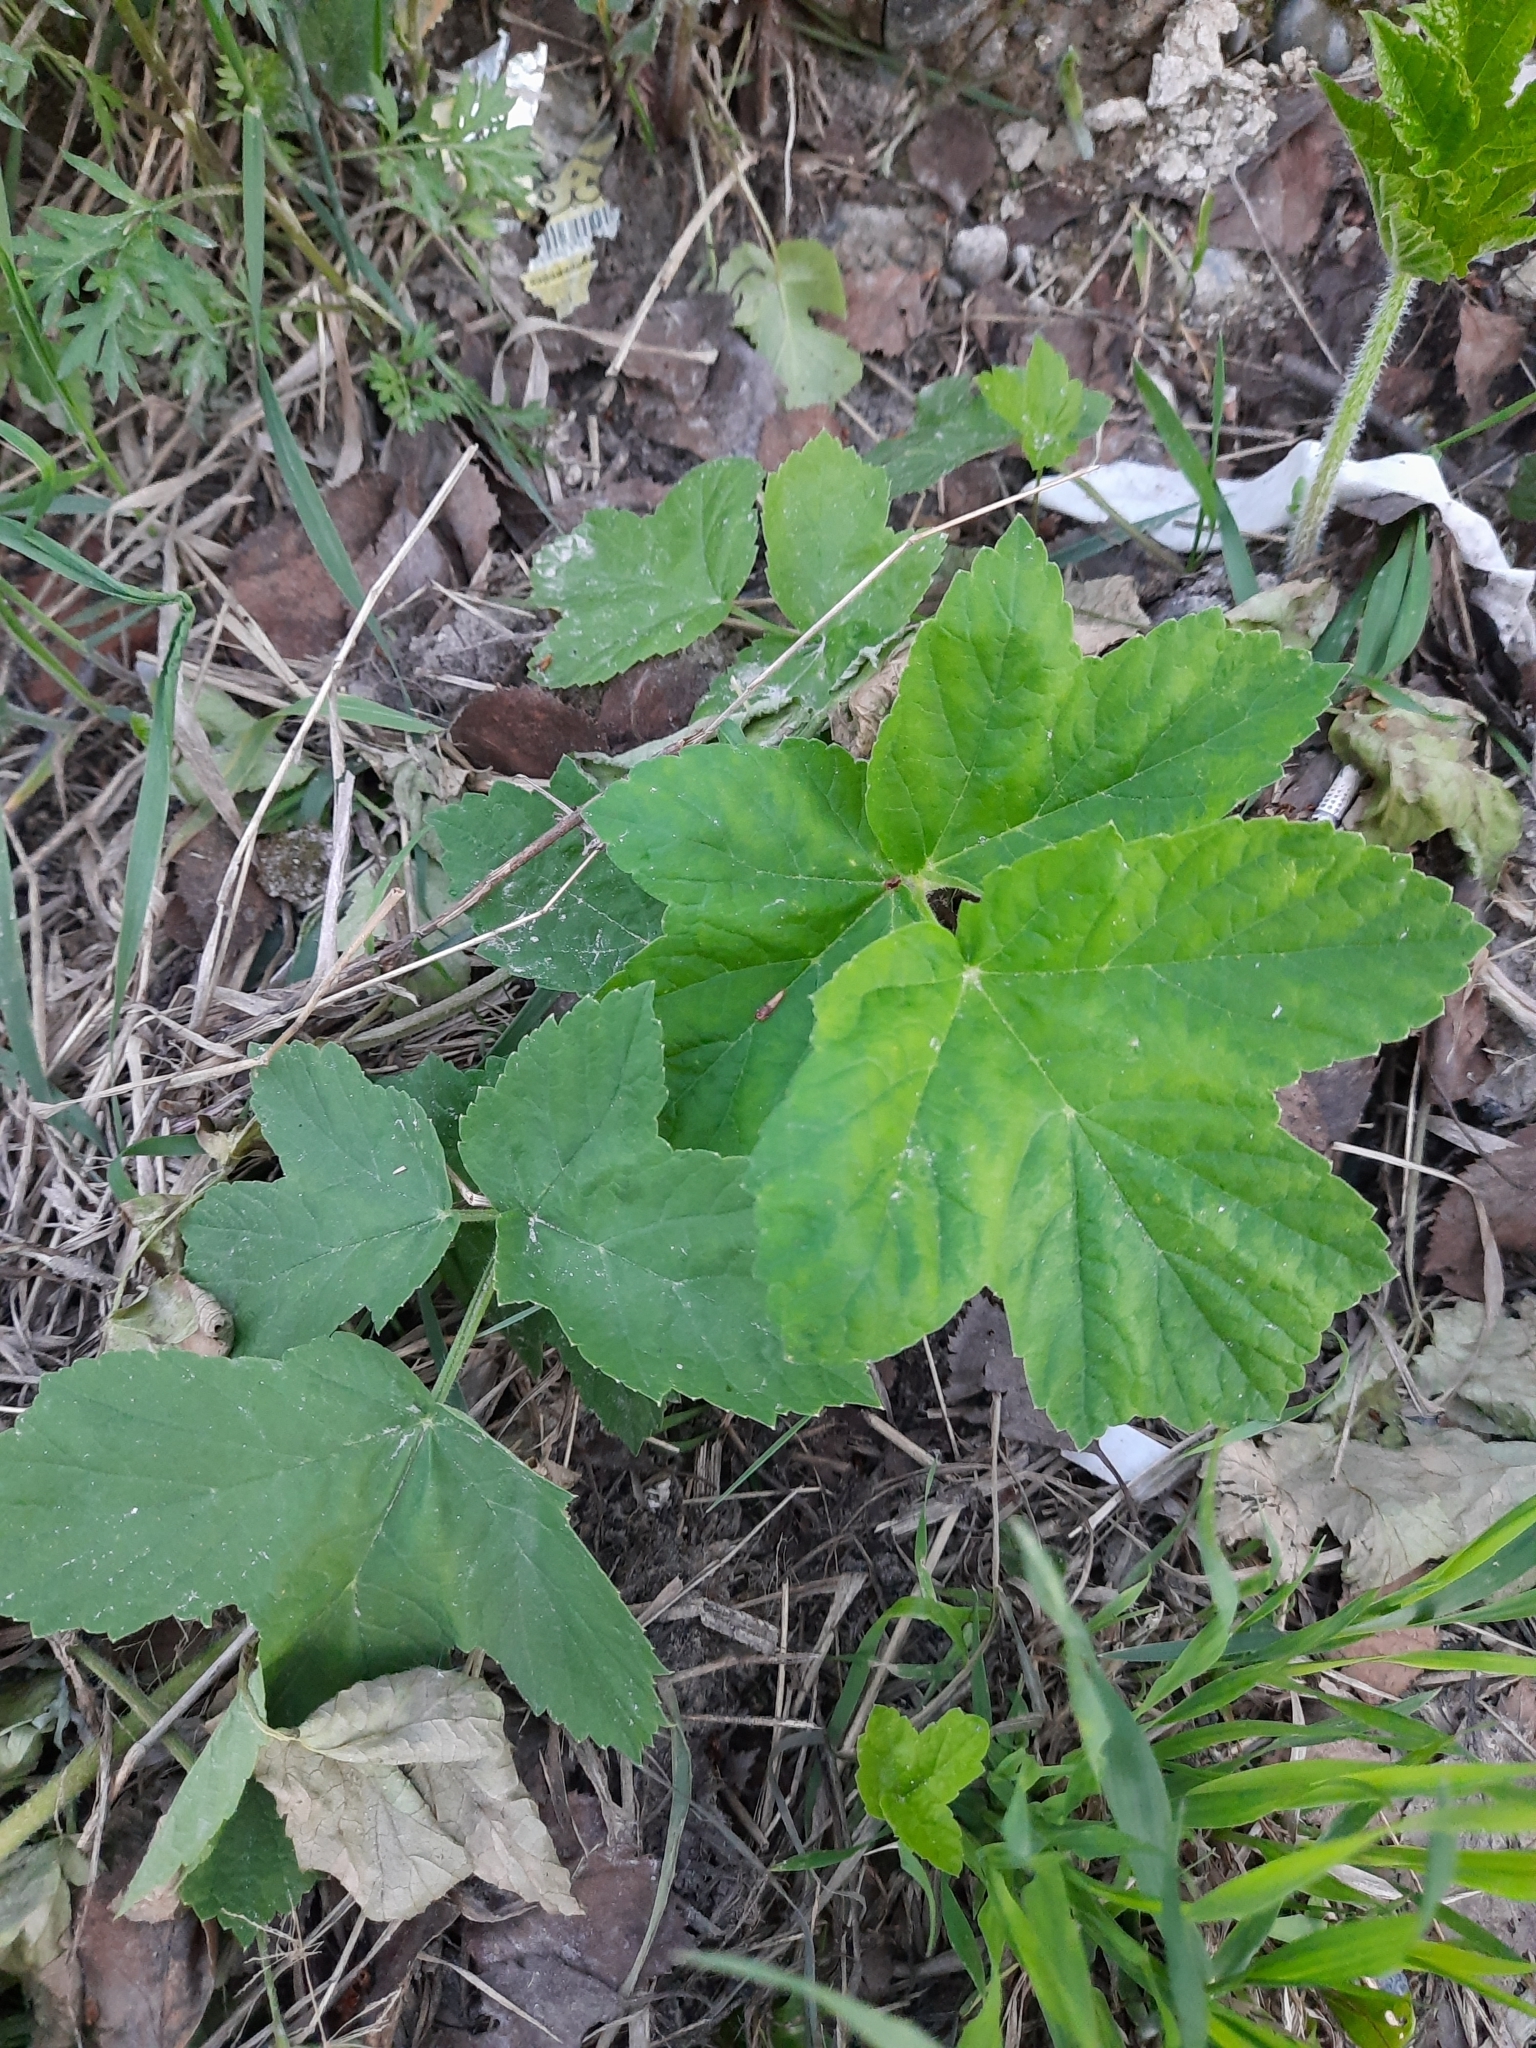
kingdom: Plantae
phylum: Tracheophyta
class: Magnoliopsida
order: Apiales
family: Apiaceae
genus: Heracleum
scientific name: Heracleum sphondylium
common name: Hogweed
